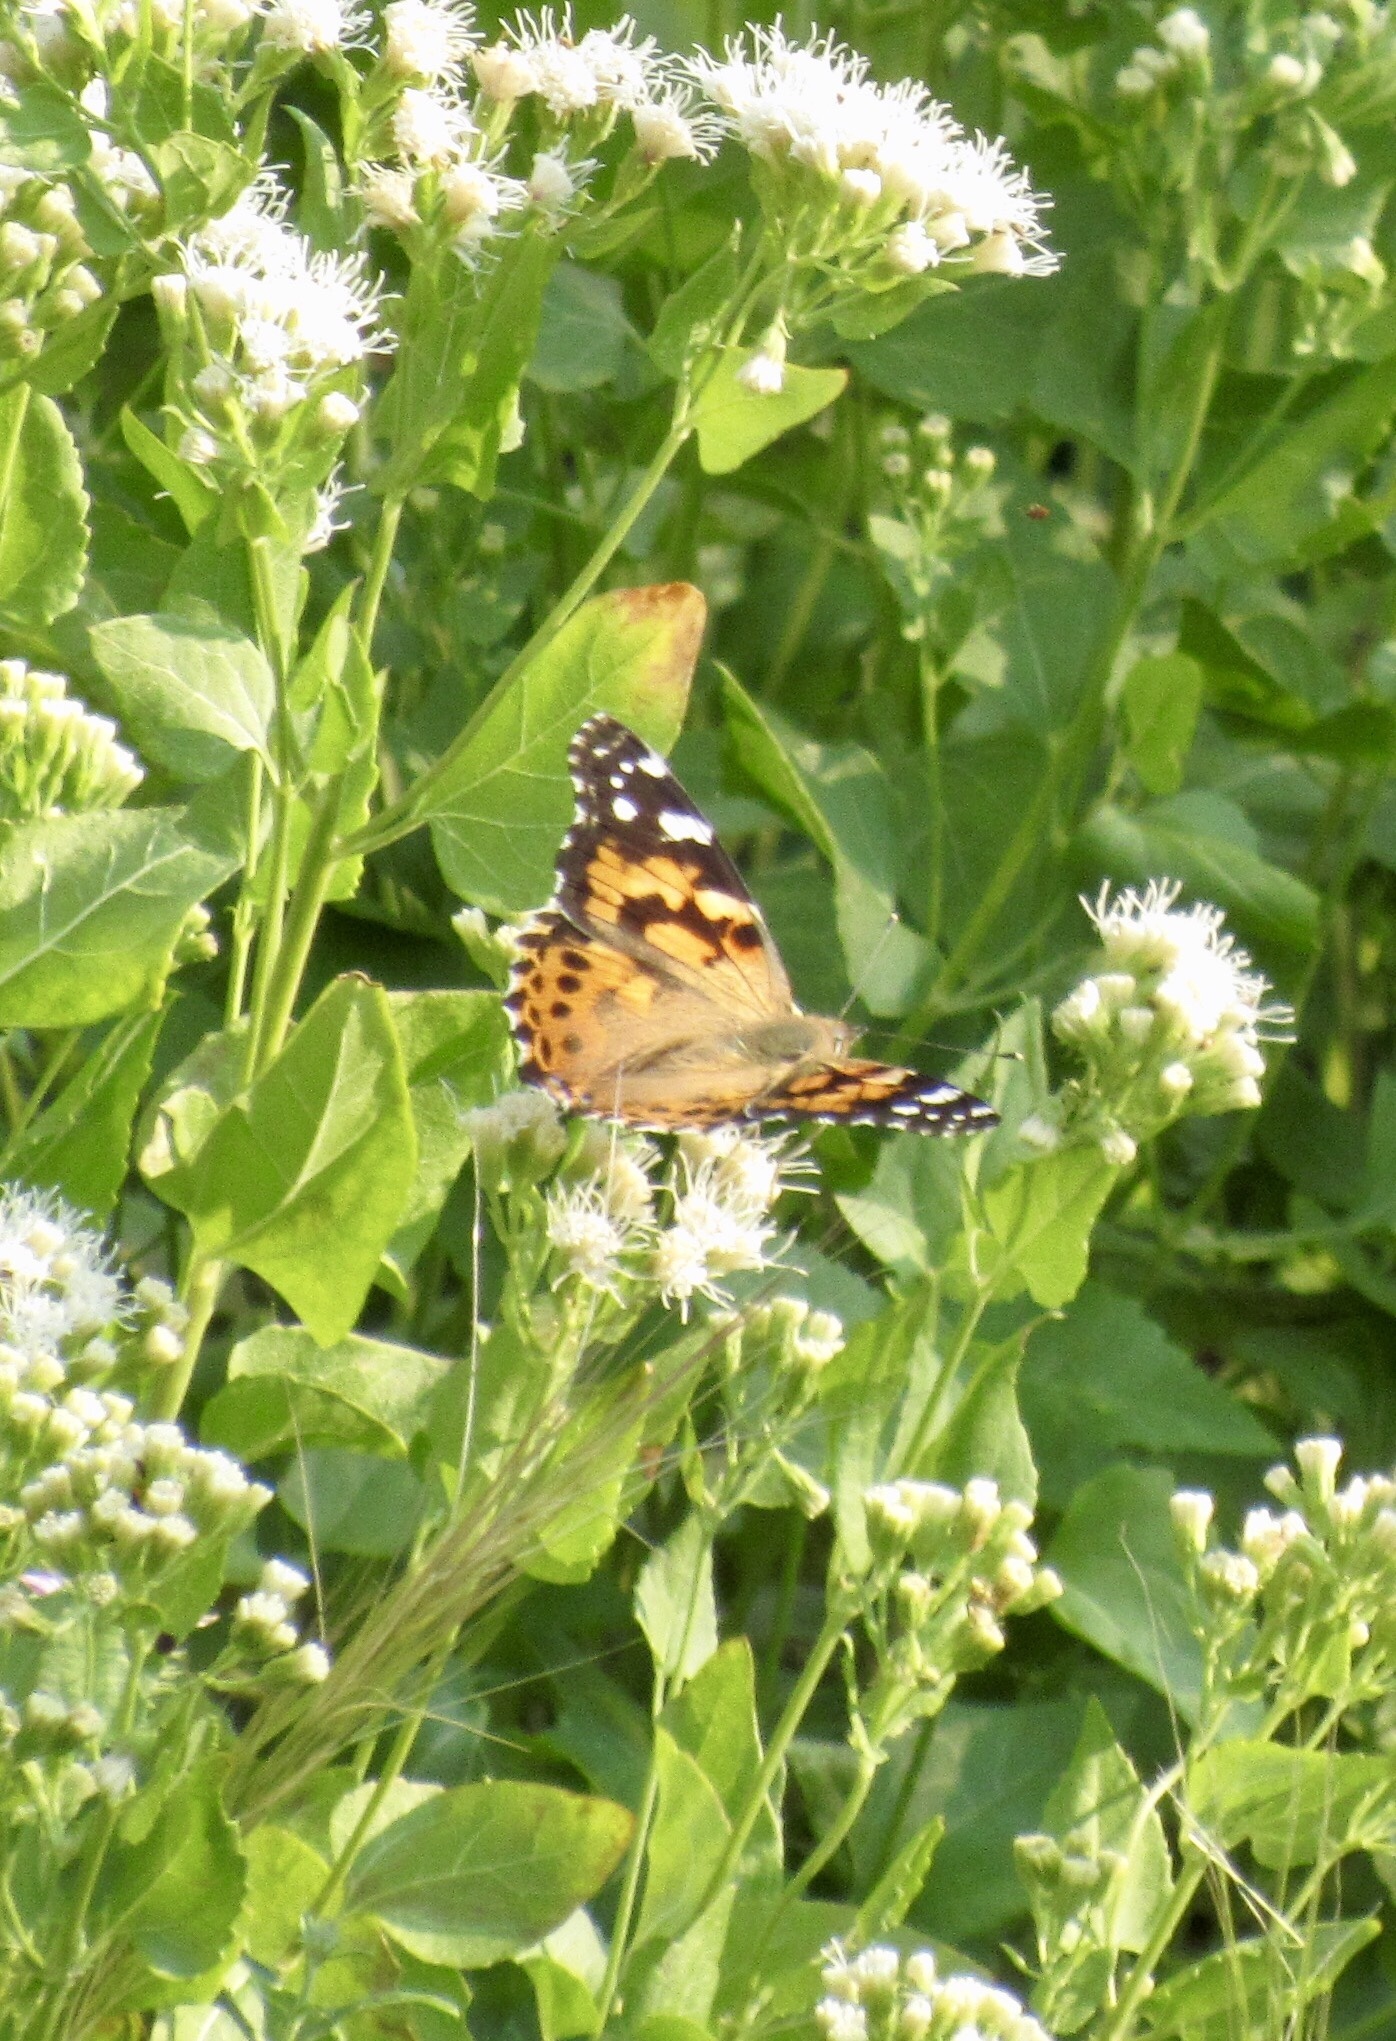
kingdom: Animalia
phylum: Arthropoda
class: Insecta
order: Lepidoptera
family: Nymphalidae
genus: Vanessa
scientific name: Vanessa cardui
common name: Painted lady
